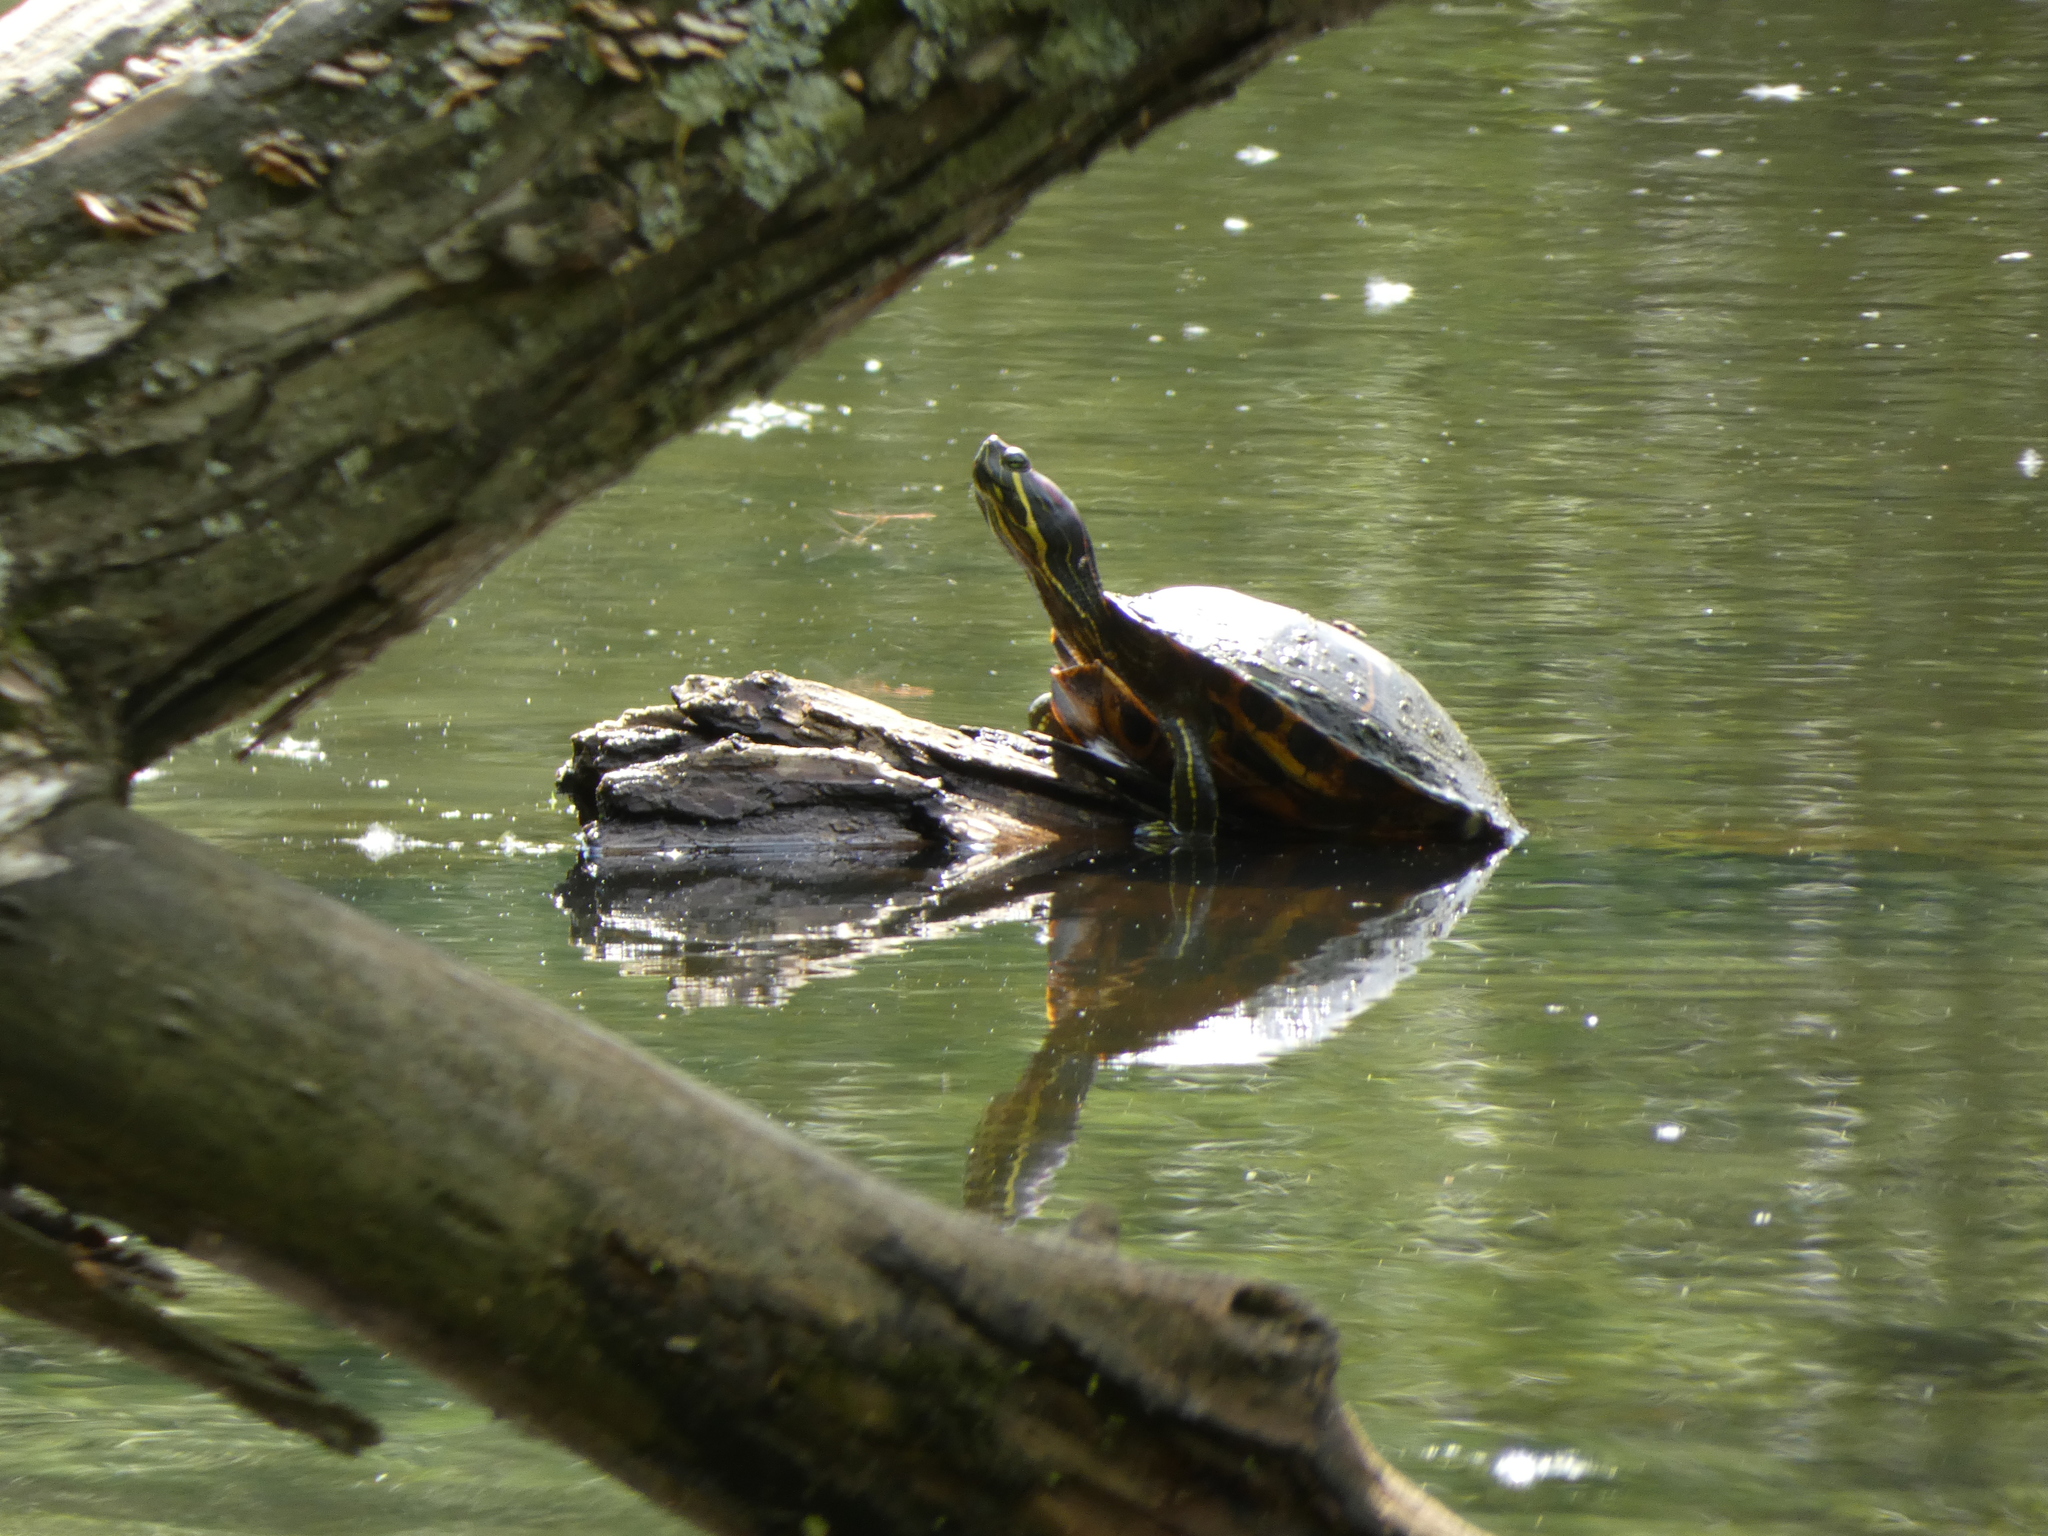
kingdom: Animalia
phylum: Chordata
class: Testudines
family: Emydidae
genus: Trachemys
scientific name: Trachemys scripta
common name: Slider
